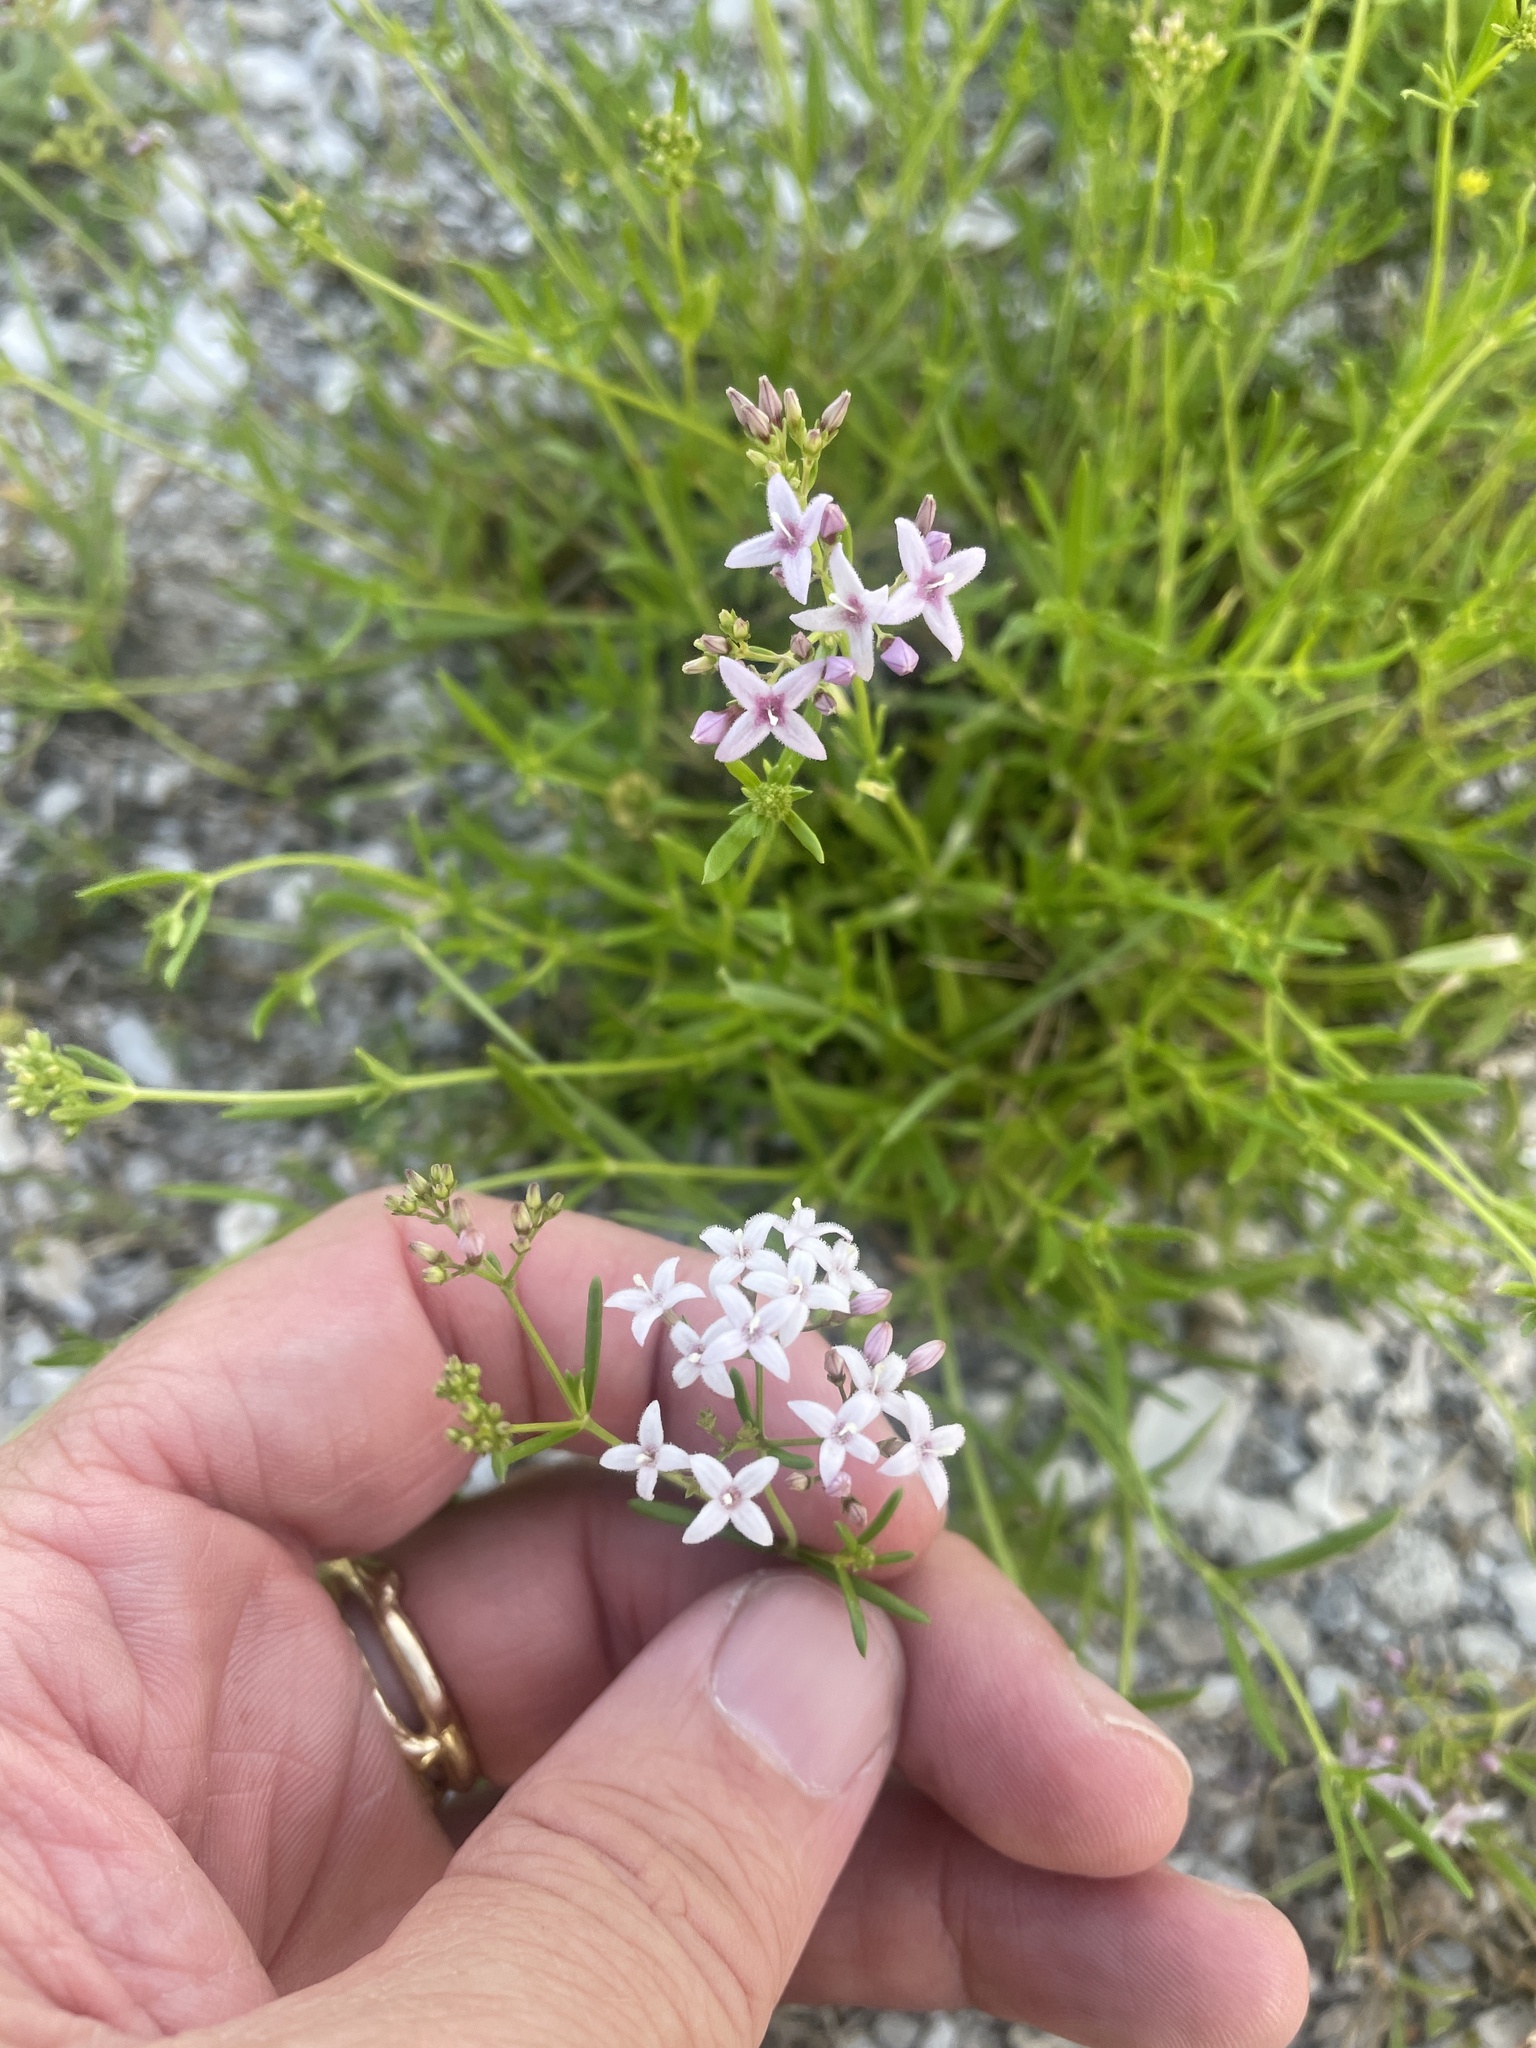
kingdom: Plantae
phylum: Tracheophyta
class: Magnoliopsida
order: Gentianales
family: Rubiaceae
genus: Stenaria
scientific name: Stenaria nigricans
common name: Diamondflowers
